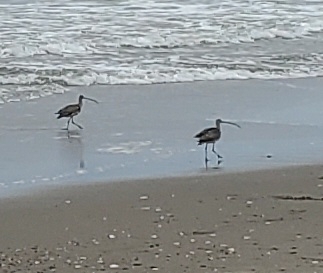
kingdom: Animalia
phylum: Chordata
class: Aves
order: Charadriiformes
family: Scolopacidae
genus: Numenius
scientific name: Numenius americanus
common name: Long-billed curlew
